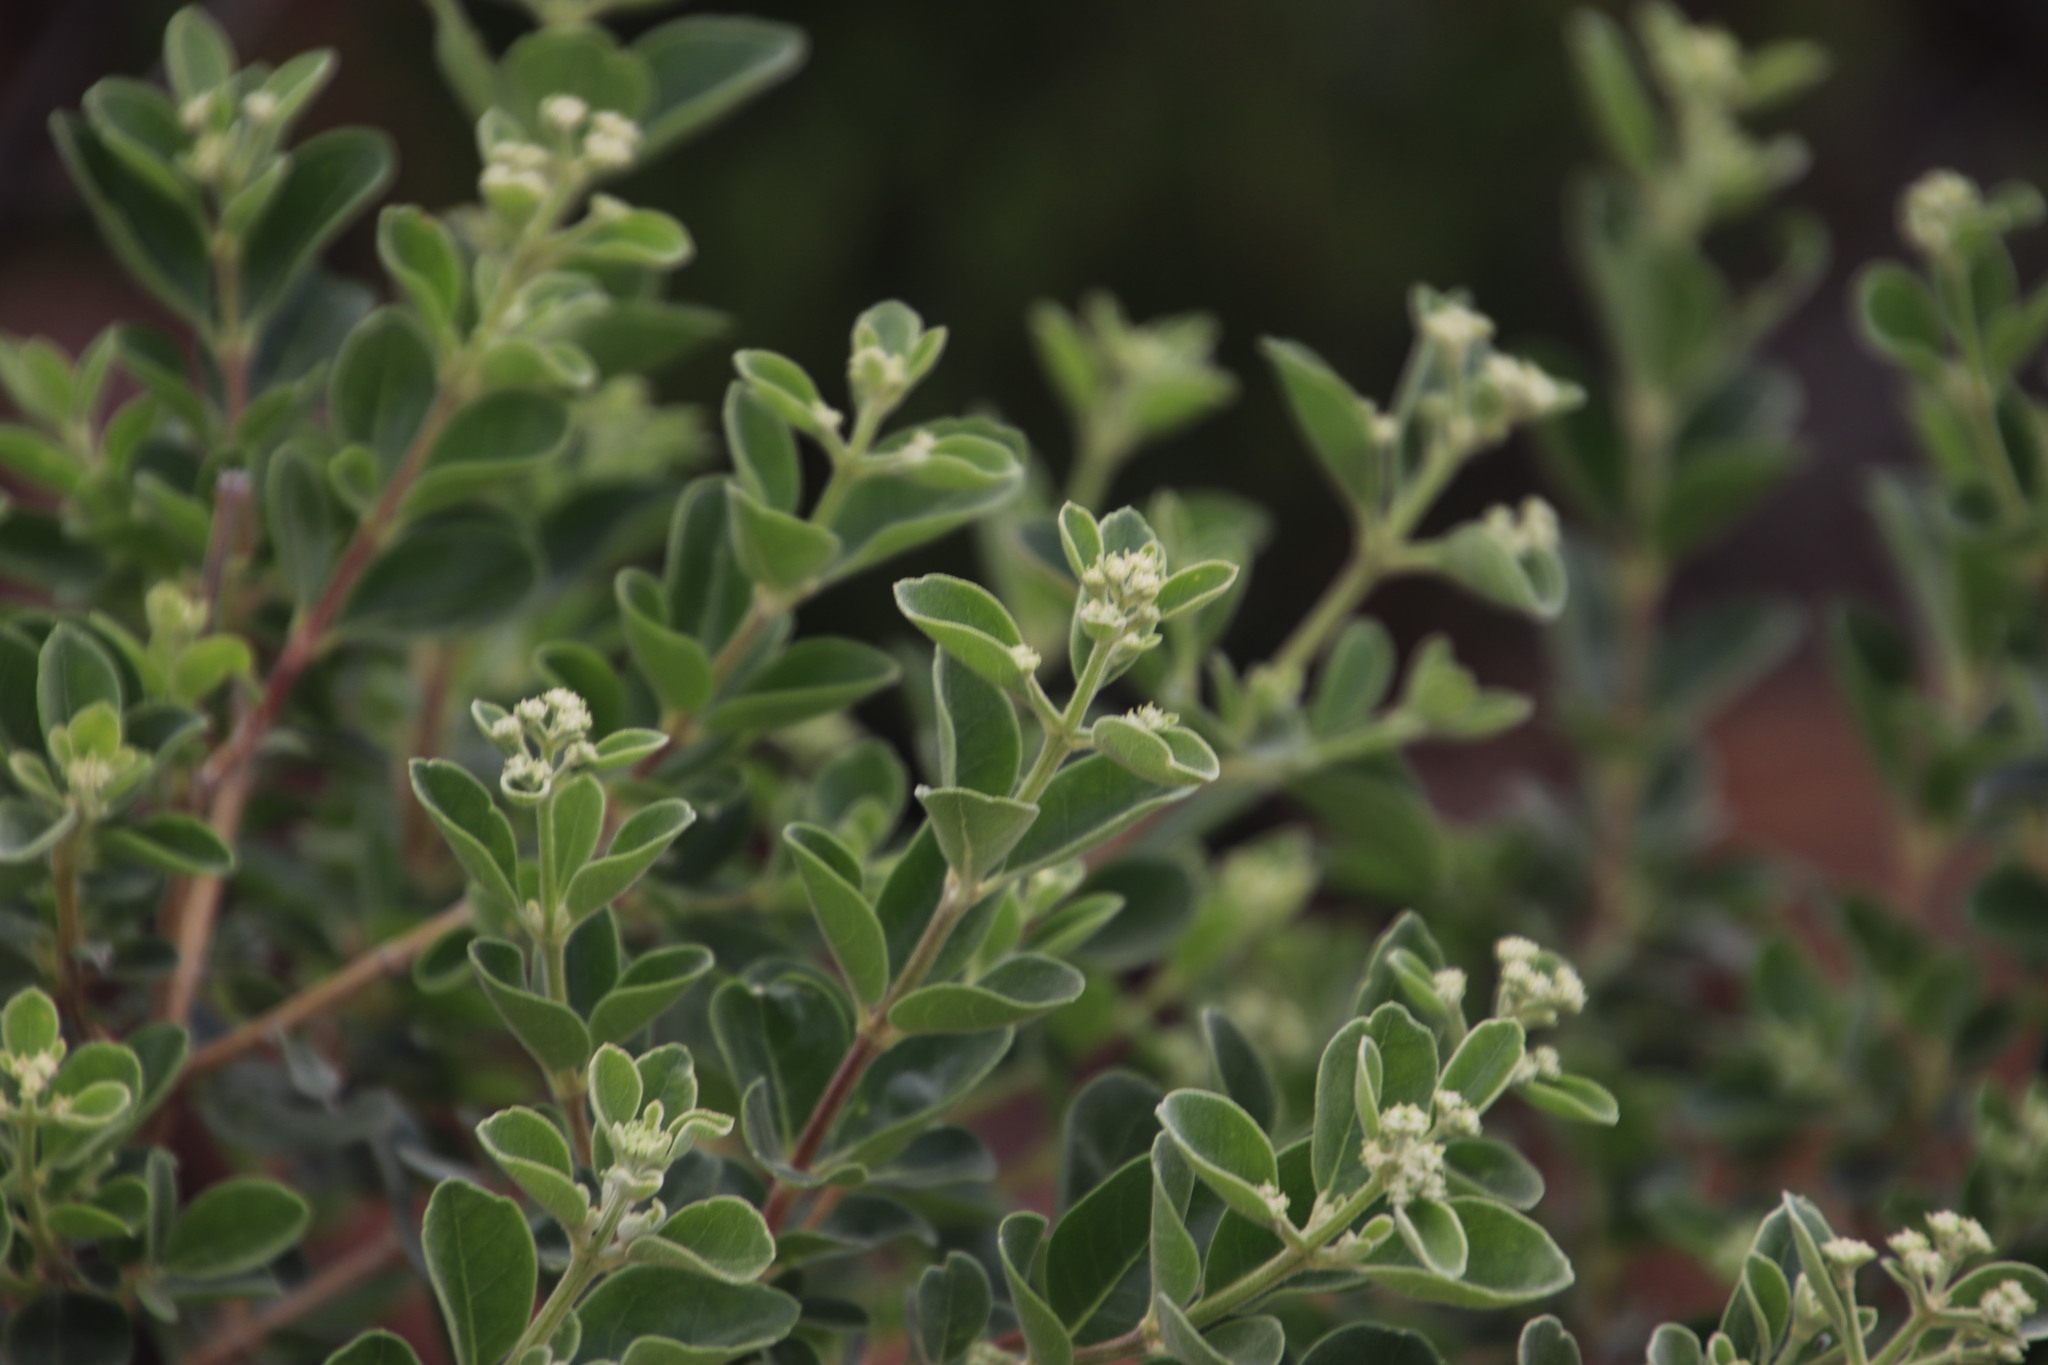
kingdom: Plantae
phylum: Tracheophyta
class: Magnoliopsida
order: Lamiales
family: Stilbaceae
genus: Nuxia
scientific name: Nuxia congesta
